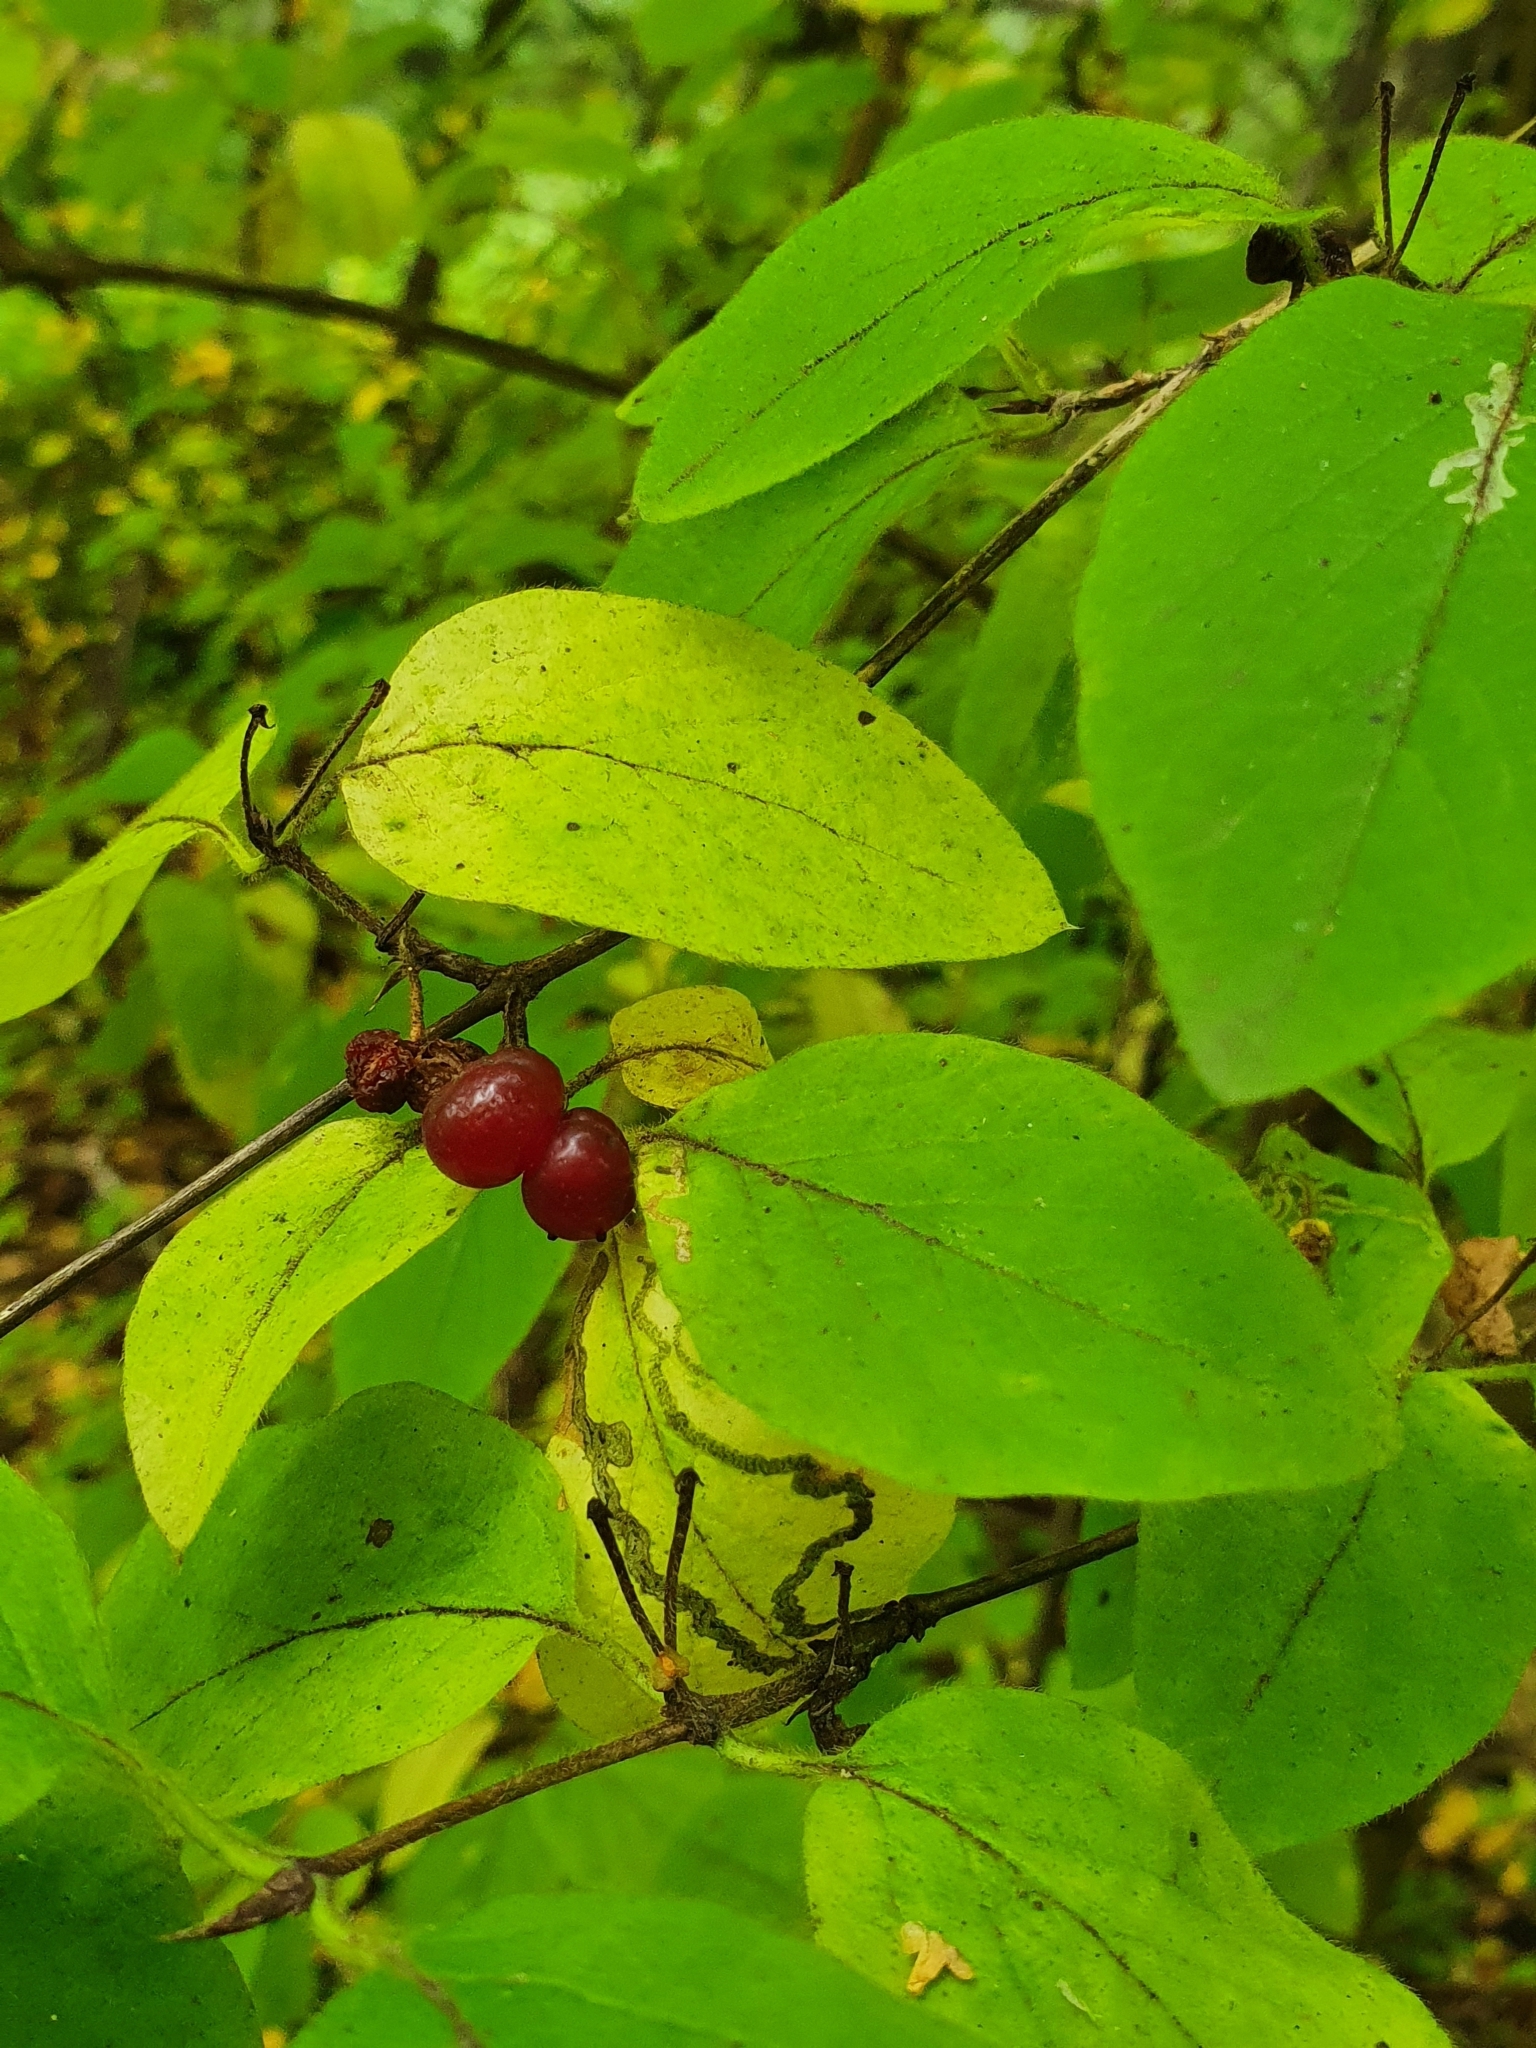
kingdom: Plantae
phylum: Tracheophyta
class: Magnoliopsida
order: Dipsacales
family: Caprifoliaceae
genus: Lonicera
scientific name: Lonicera xylosteum
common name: Fly honeysuckle
